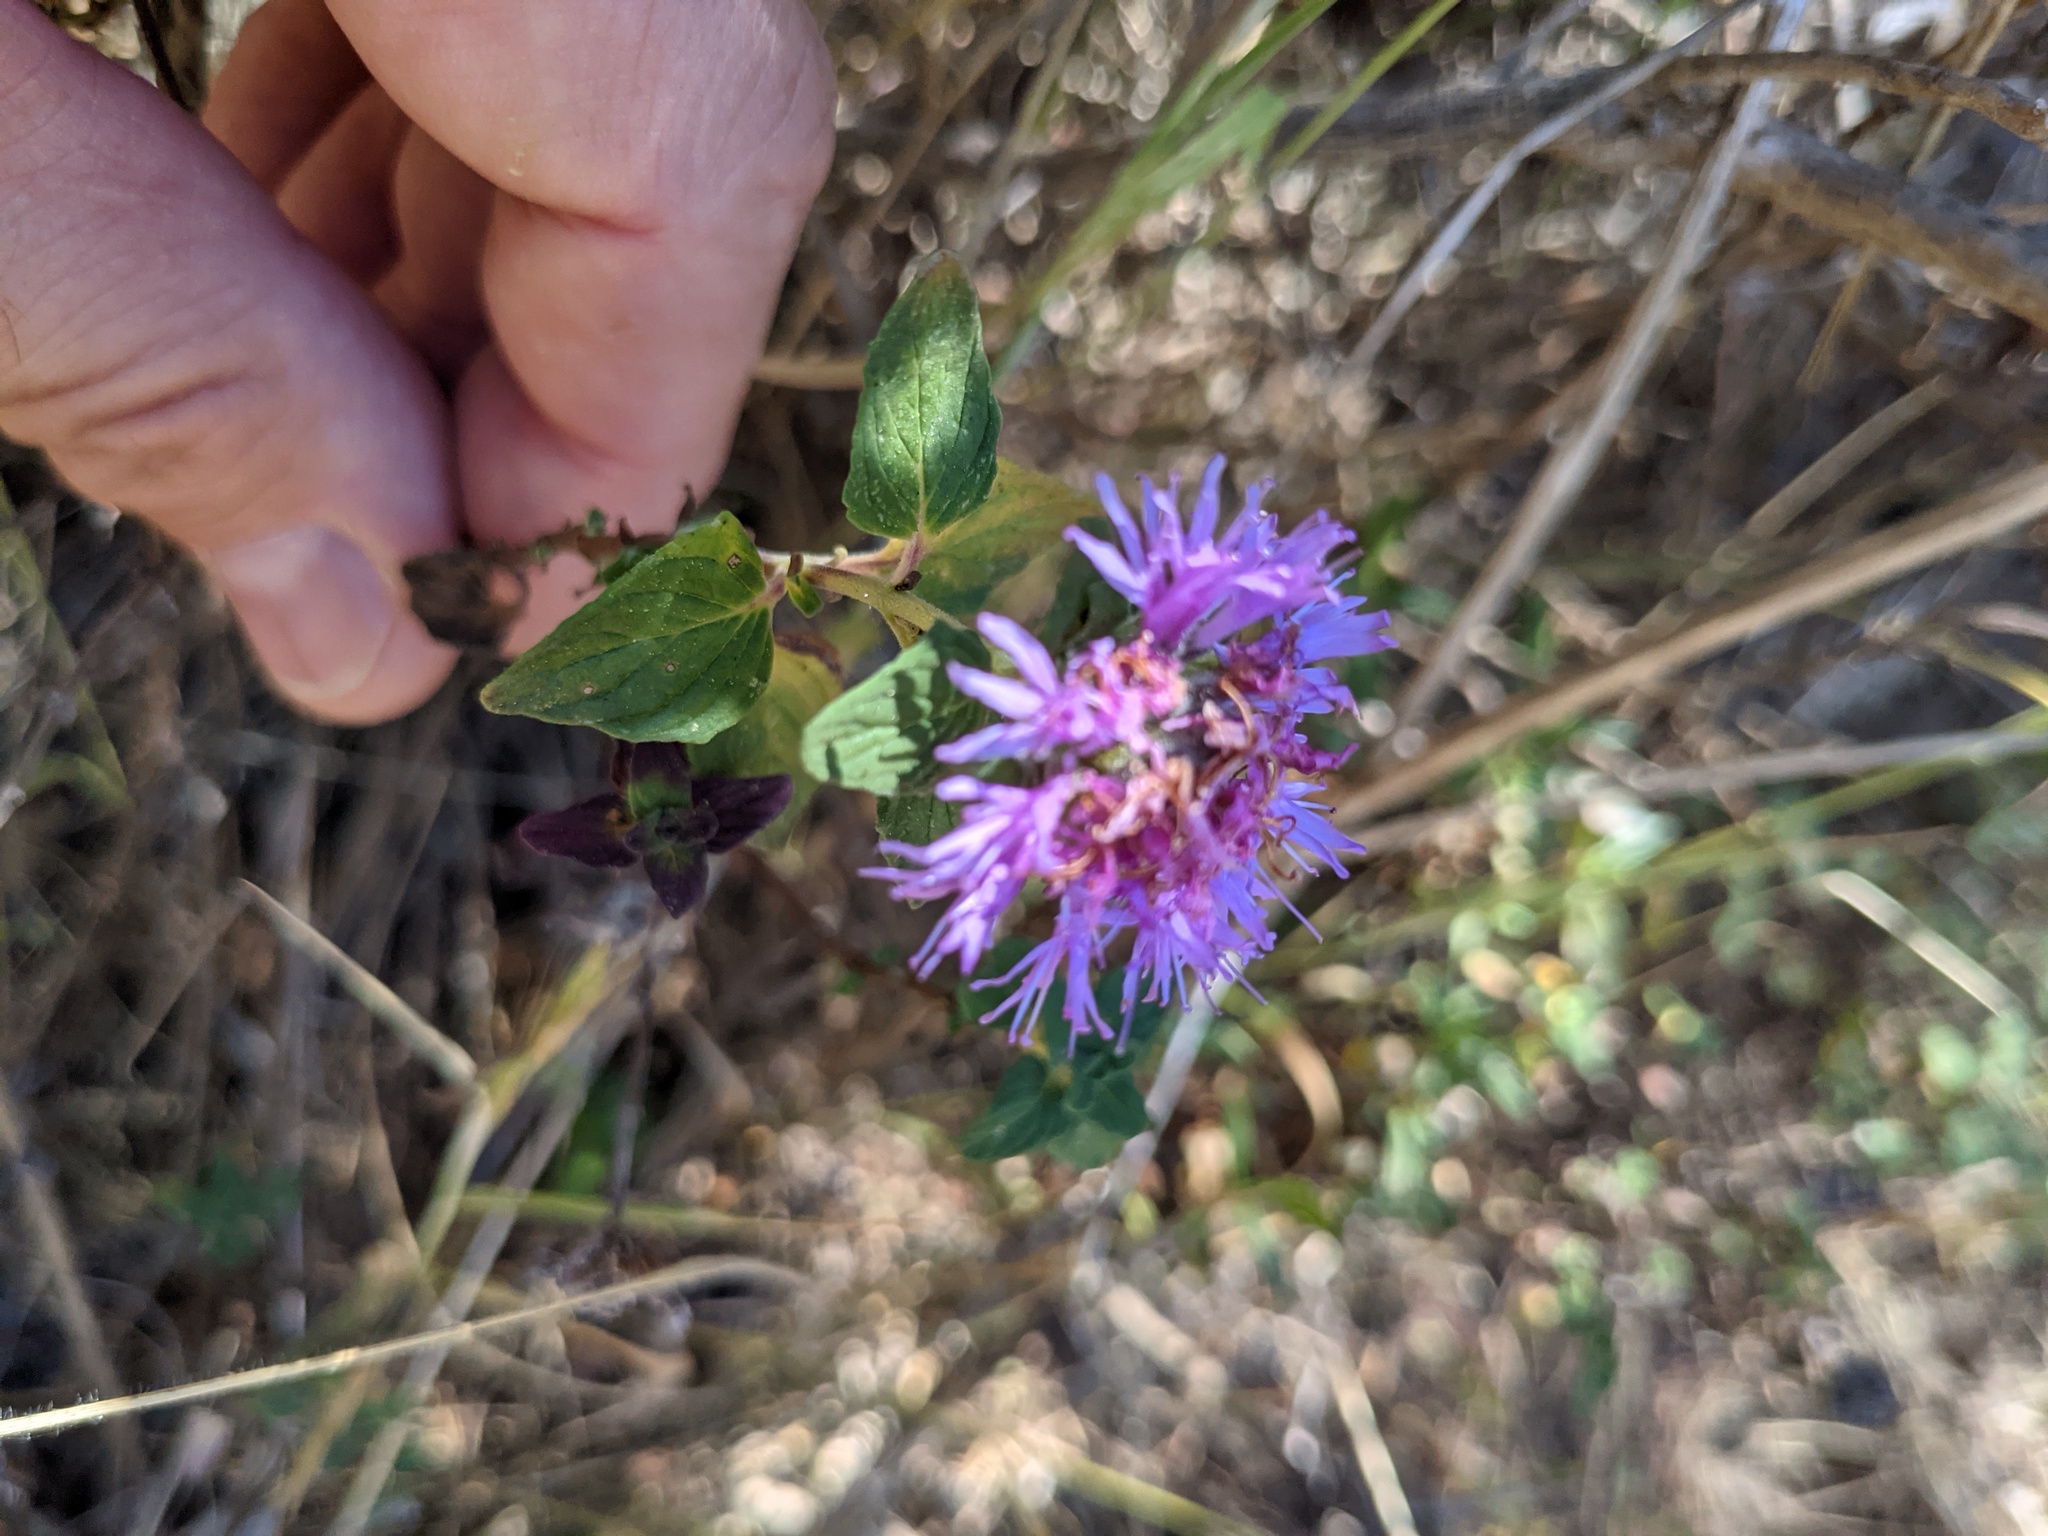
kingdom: Plantae
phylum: Tracheophyta
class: Magnoliopsida
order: Lamiales
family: Lamiaceae
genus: Monardella
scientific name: Monardella odoratissima
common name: Pacific monardella
